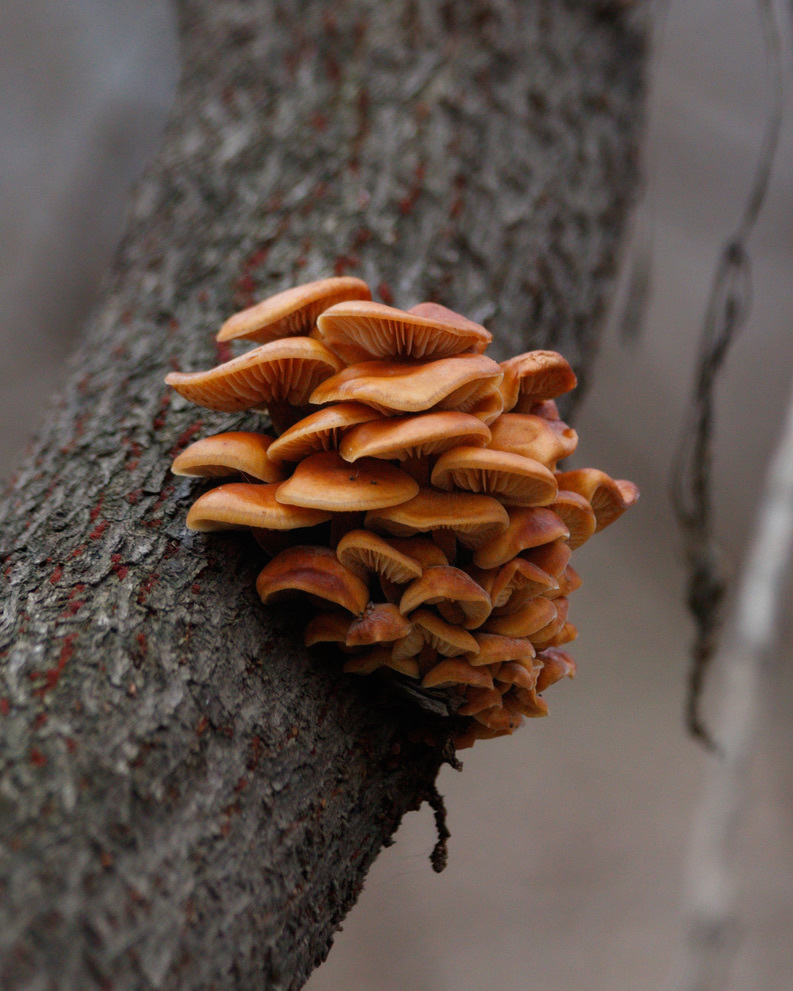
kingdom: Fungi
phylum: Basidiomycota
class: Agaricomycetes
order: Agaricales
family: Physalacriaceae
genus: Flammulina
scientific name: Flammulina
